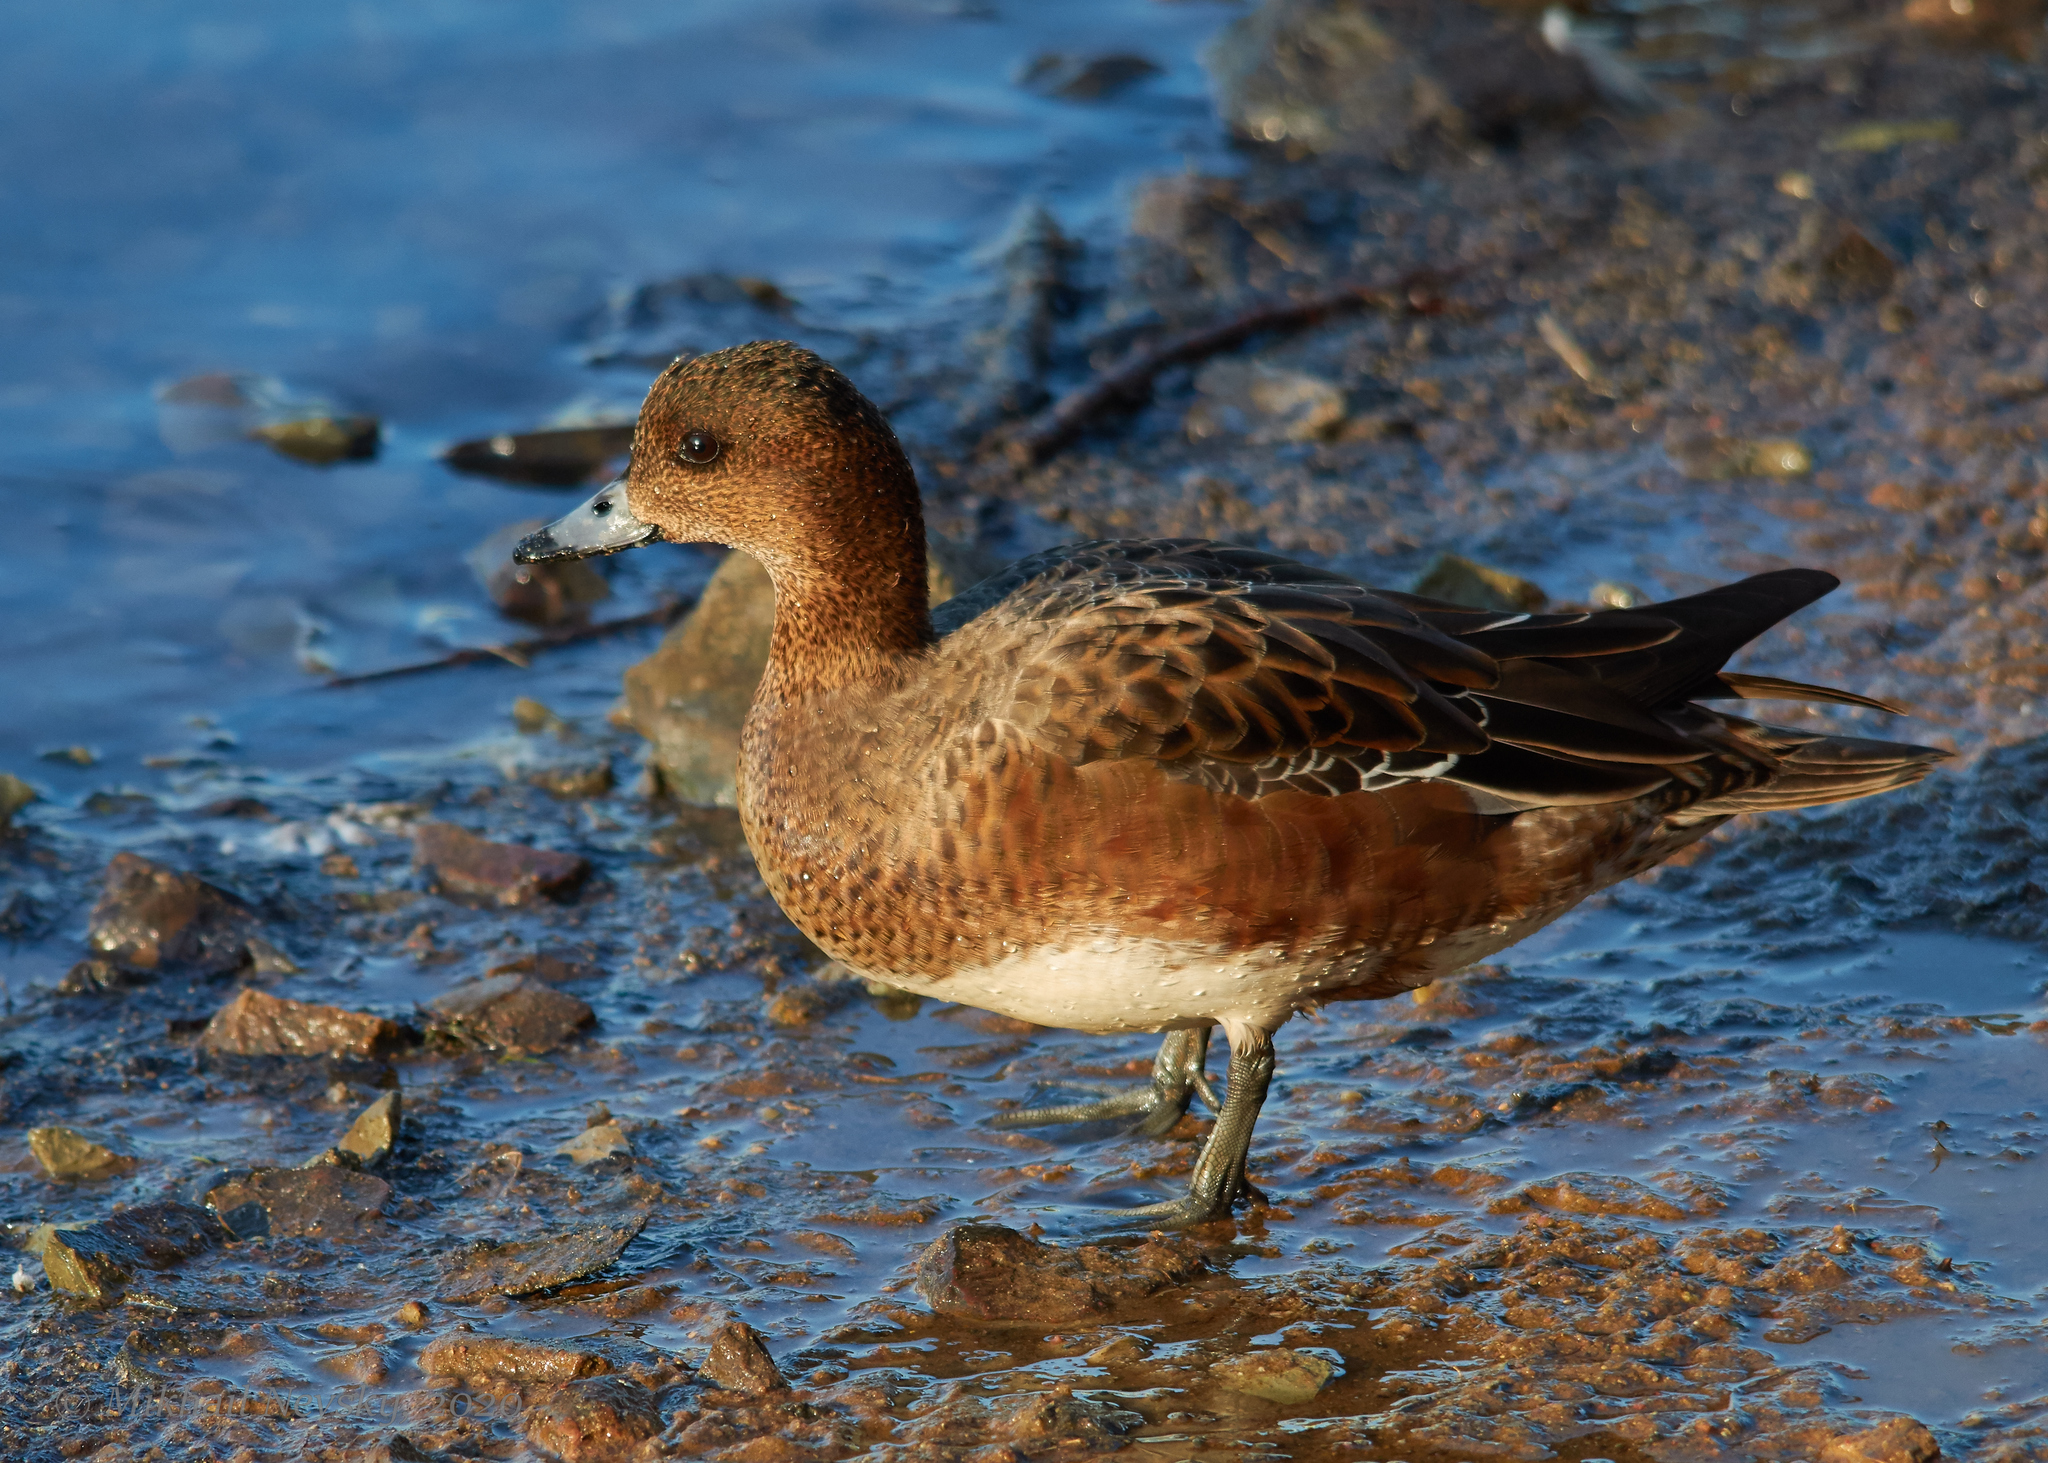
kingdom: Animalia
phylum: Chordata
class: Aves
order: Anseriformes
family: Anatidae
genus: Mareca
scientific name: Mareca penelope
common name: Eurasian wigeon
